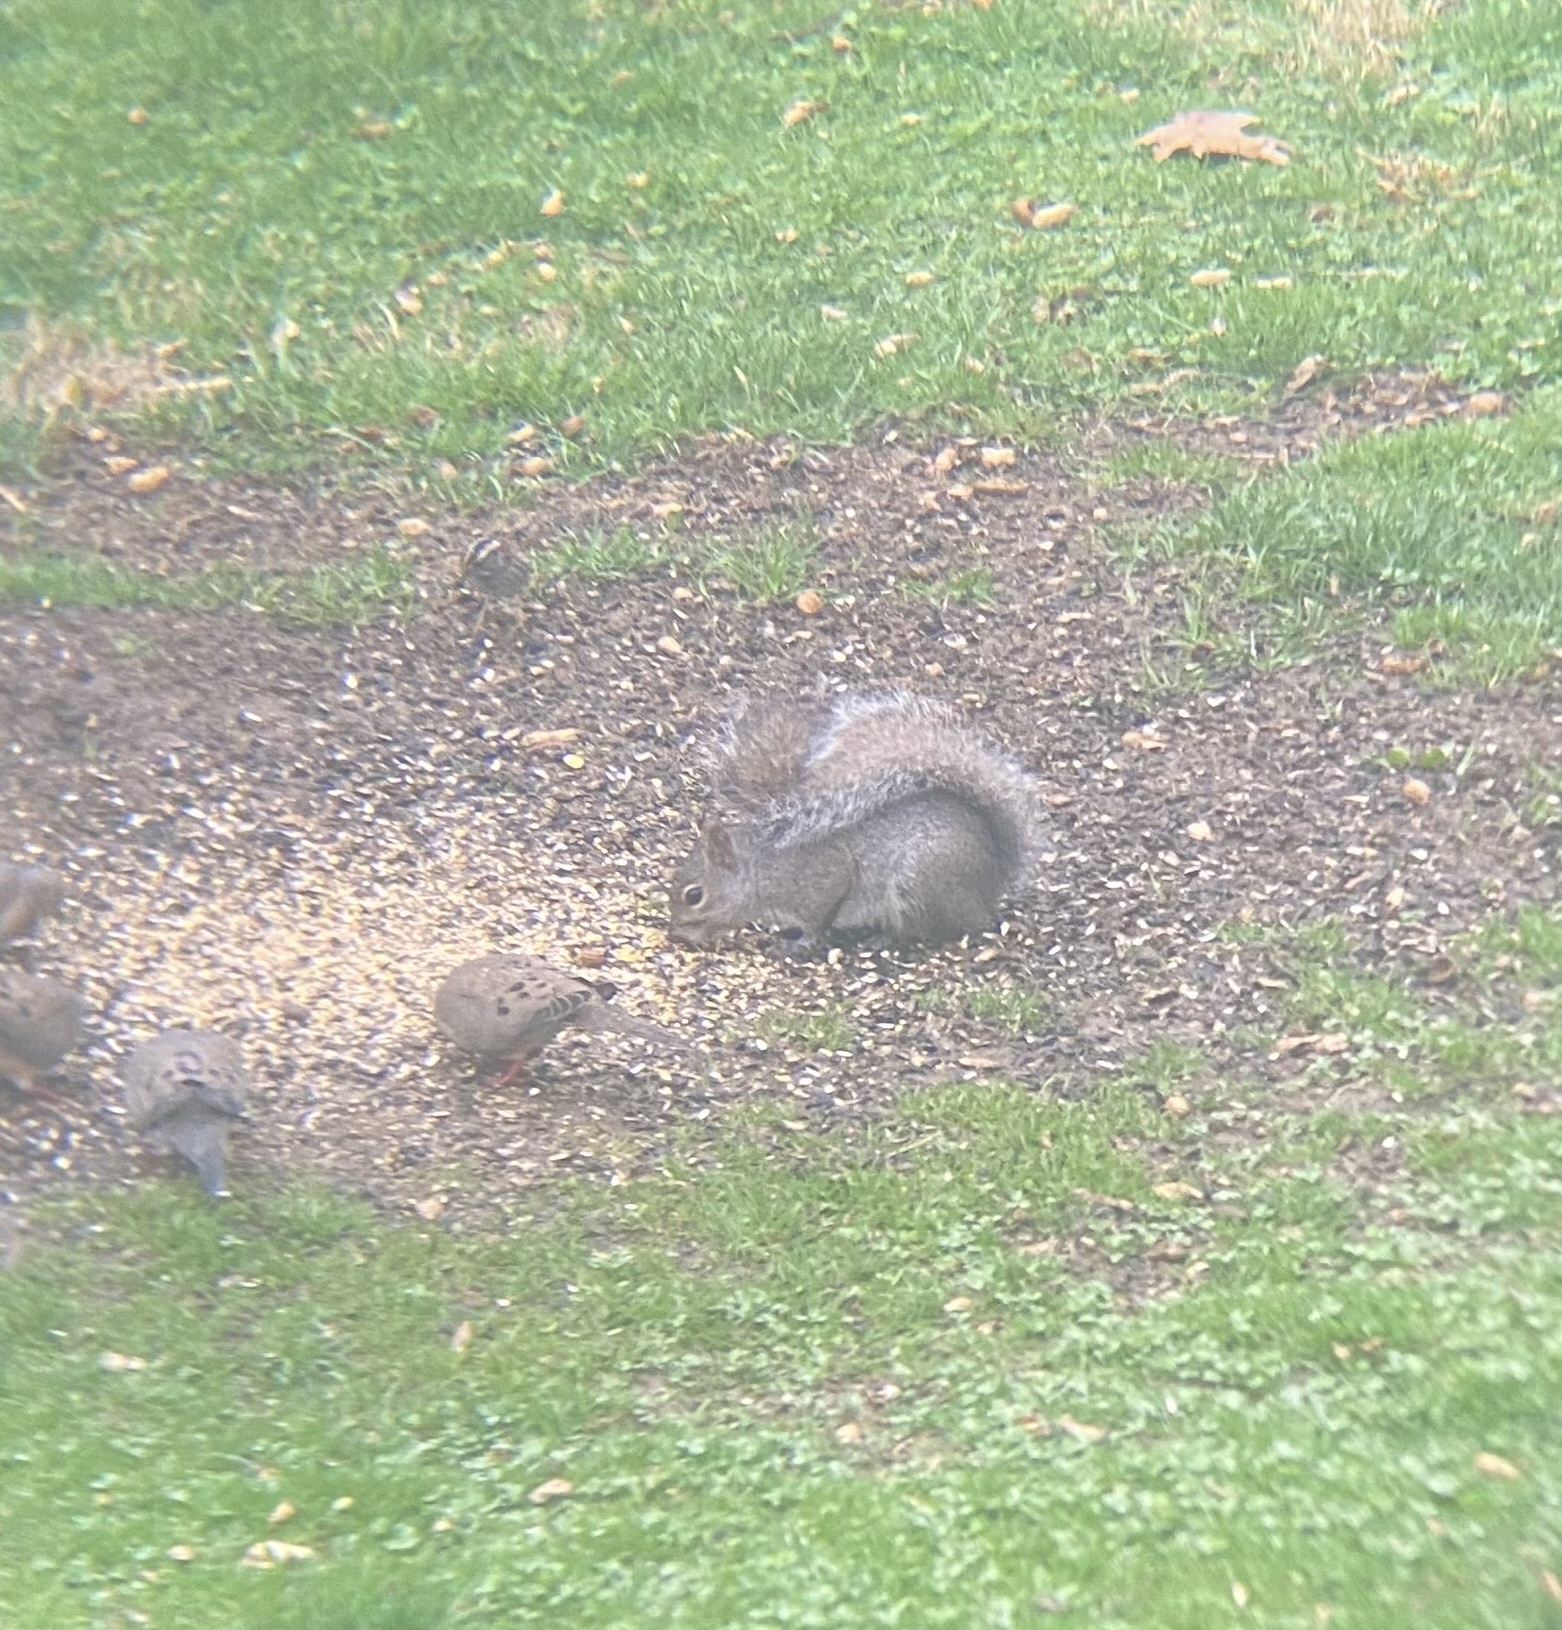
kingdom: Animalia
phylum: Chordata
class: Mammalia
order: Rodentia
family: Sciuridae
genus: Sciurus
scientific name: Sciurus carolinensis
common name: Eastern gray squirrel
